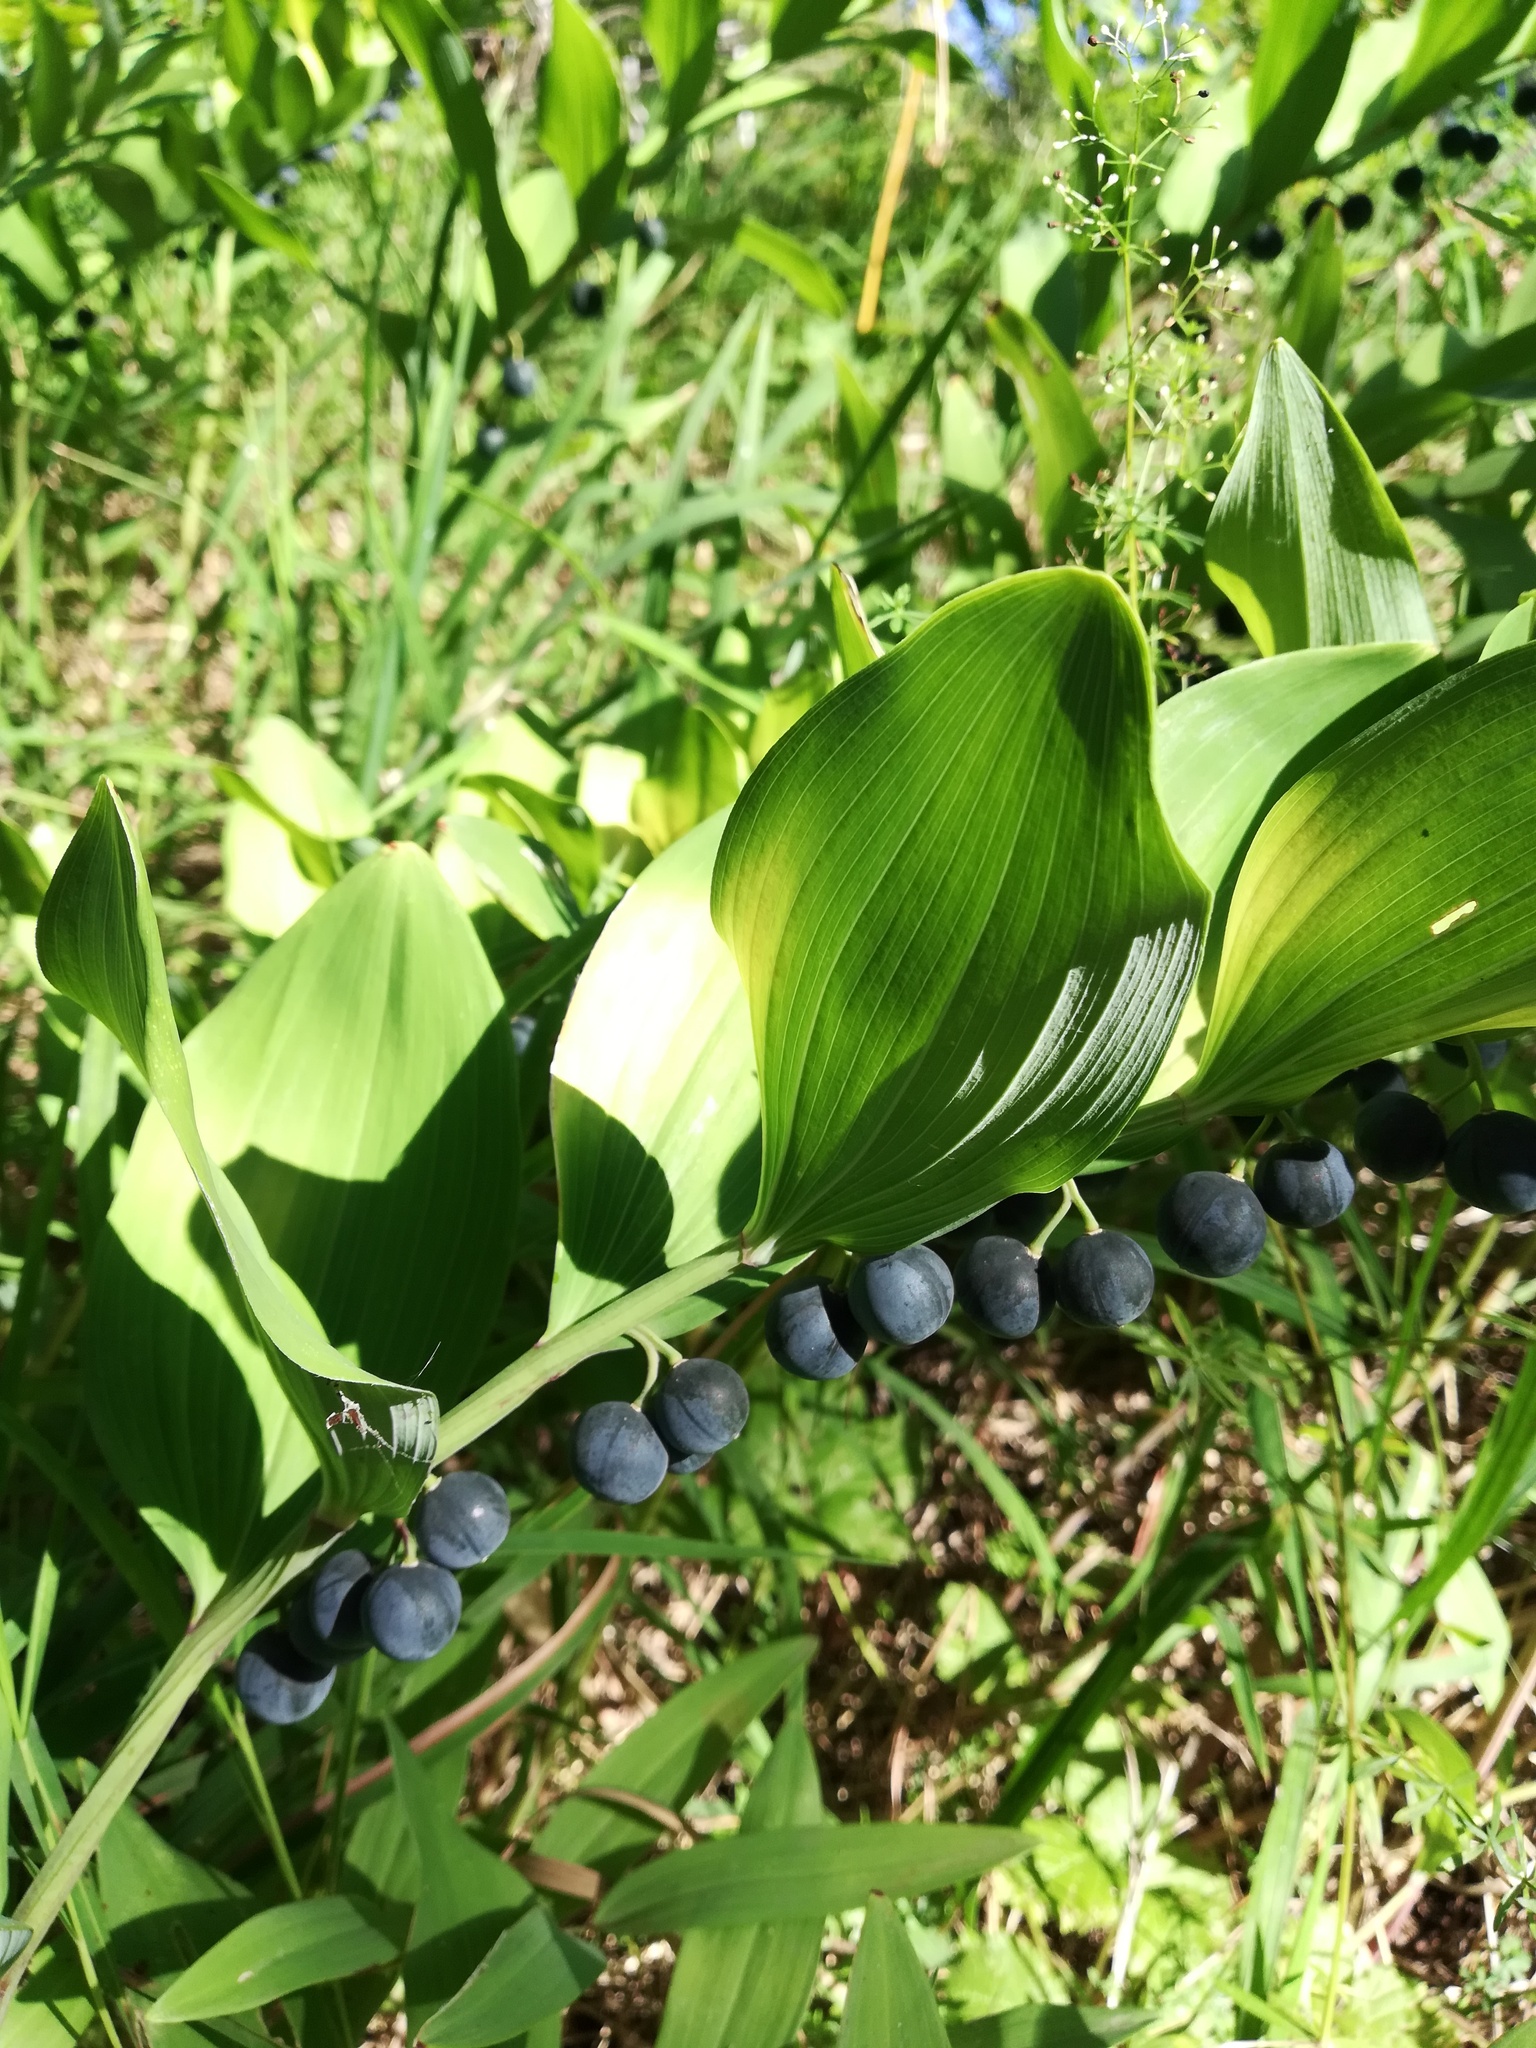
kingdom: Plantae
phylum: Tracheophyta
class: Liliopsida
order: Asparagales
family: Asparagaceae
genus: Polygonatum
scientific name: Polygonatum multiflorum
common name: Solomon's-seal
